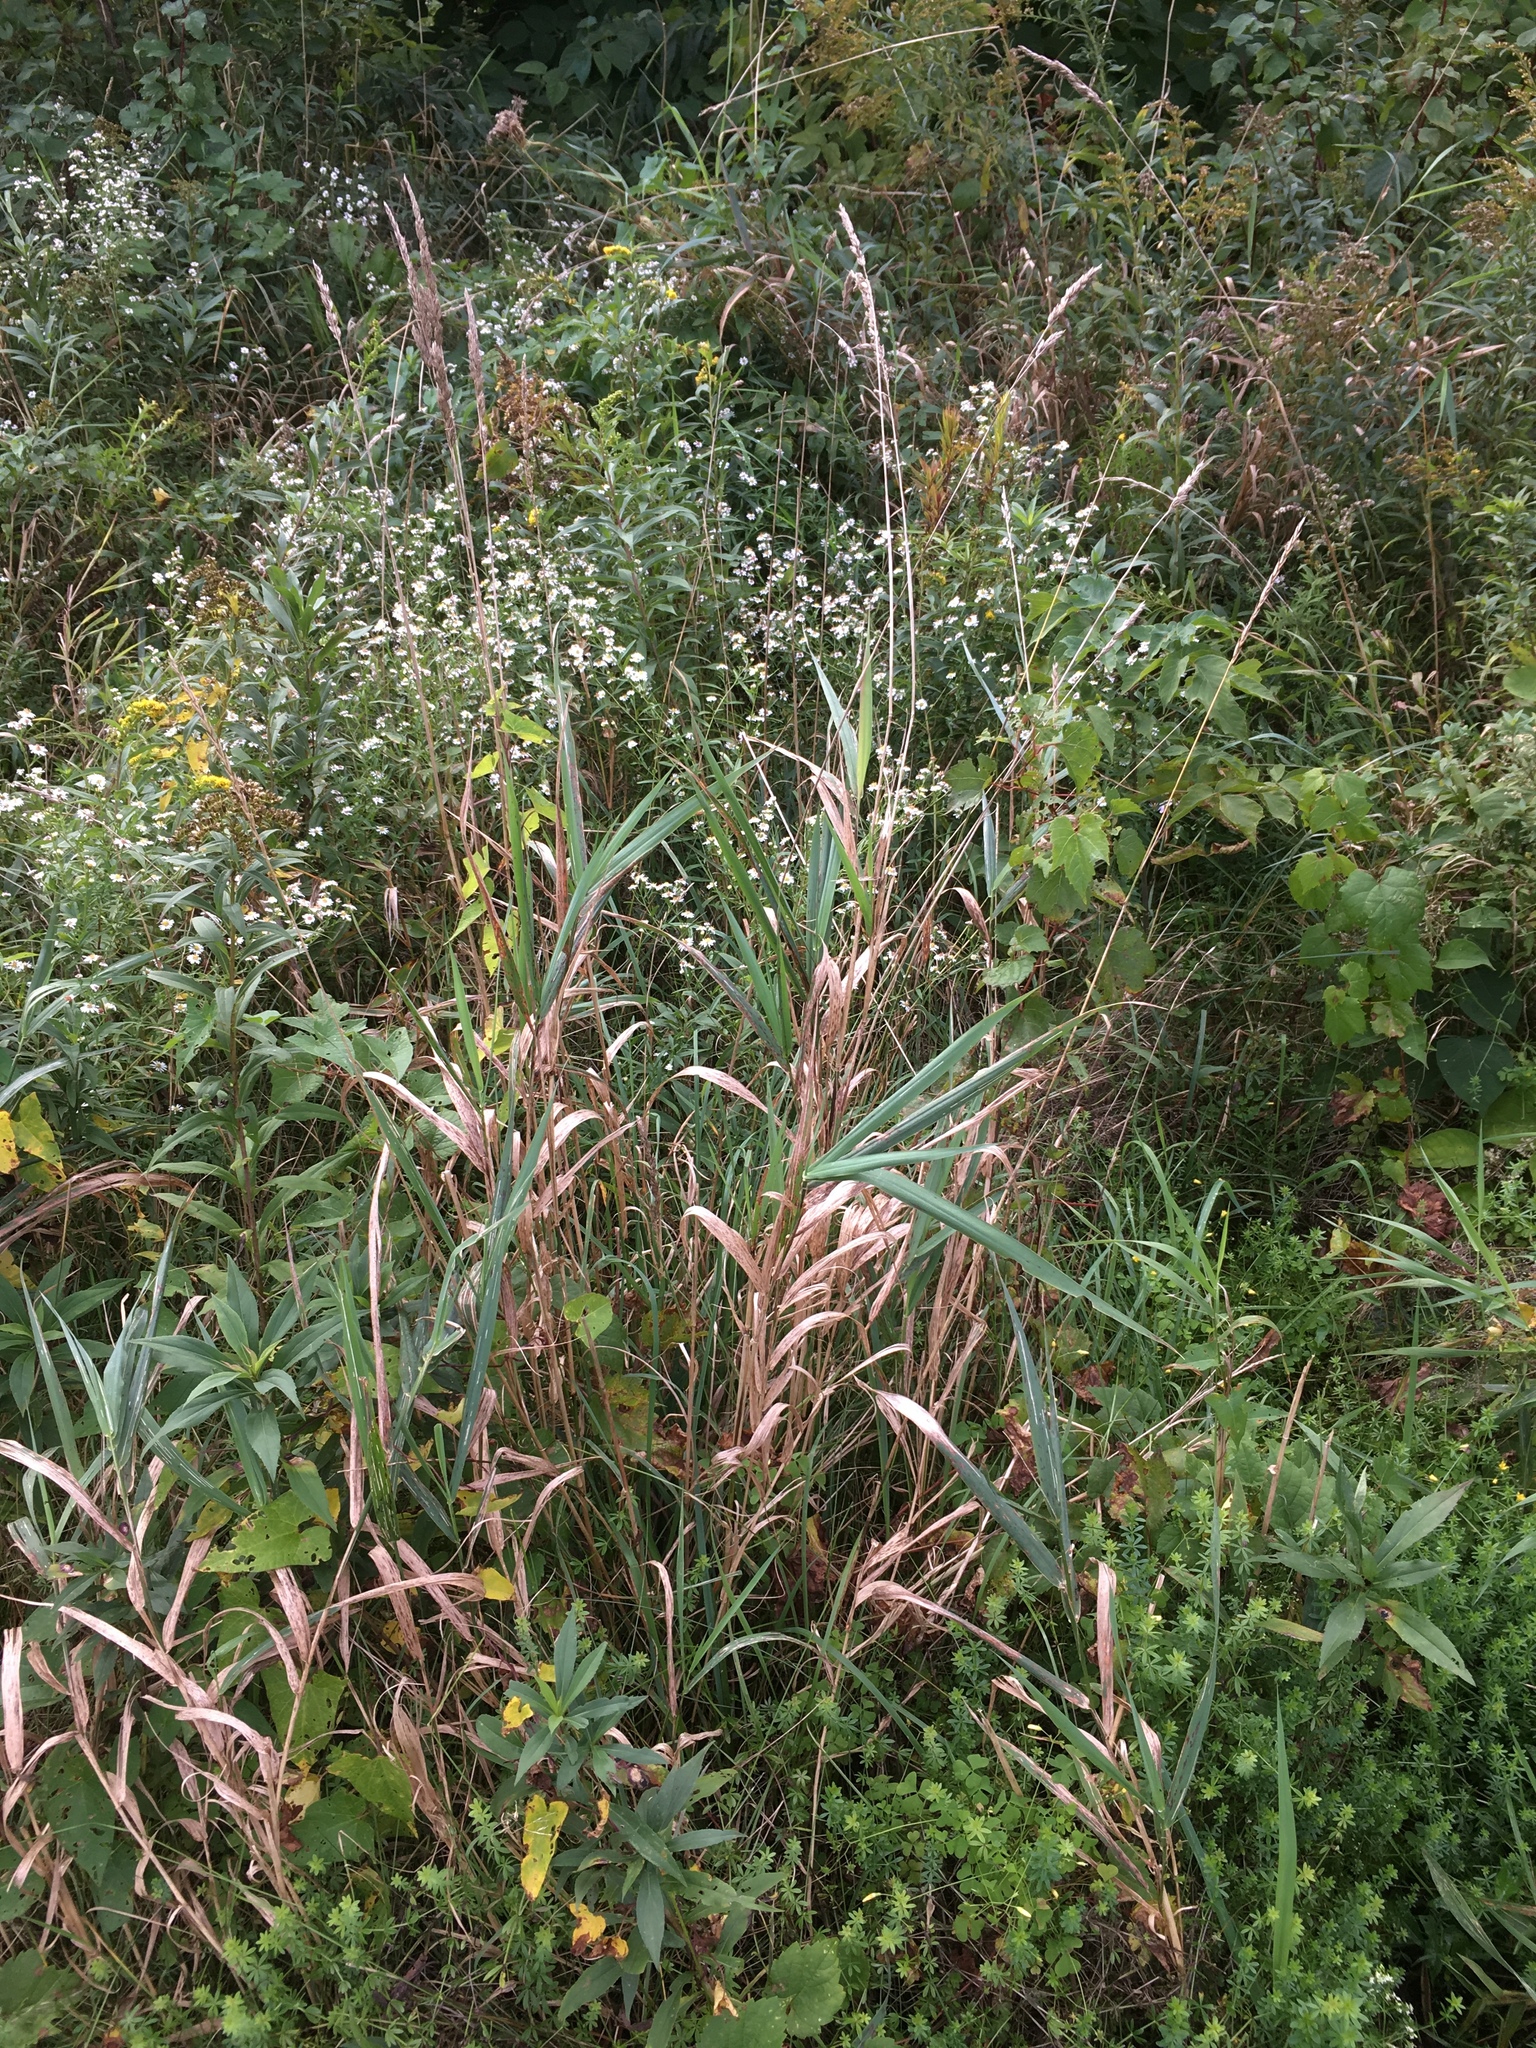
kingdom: Plantae
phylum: Tracheophyta
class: Liliopsida
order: Poales
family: Poaceae
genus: Phalaris
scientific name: Phalaris arundinacea
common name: Reed canary-grass
